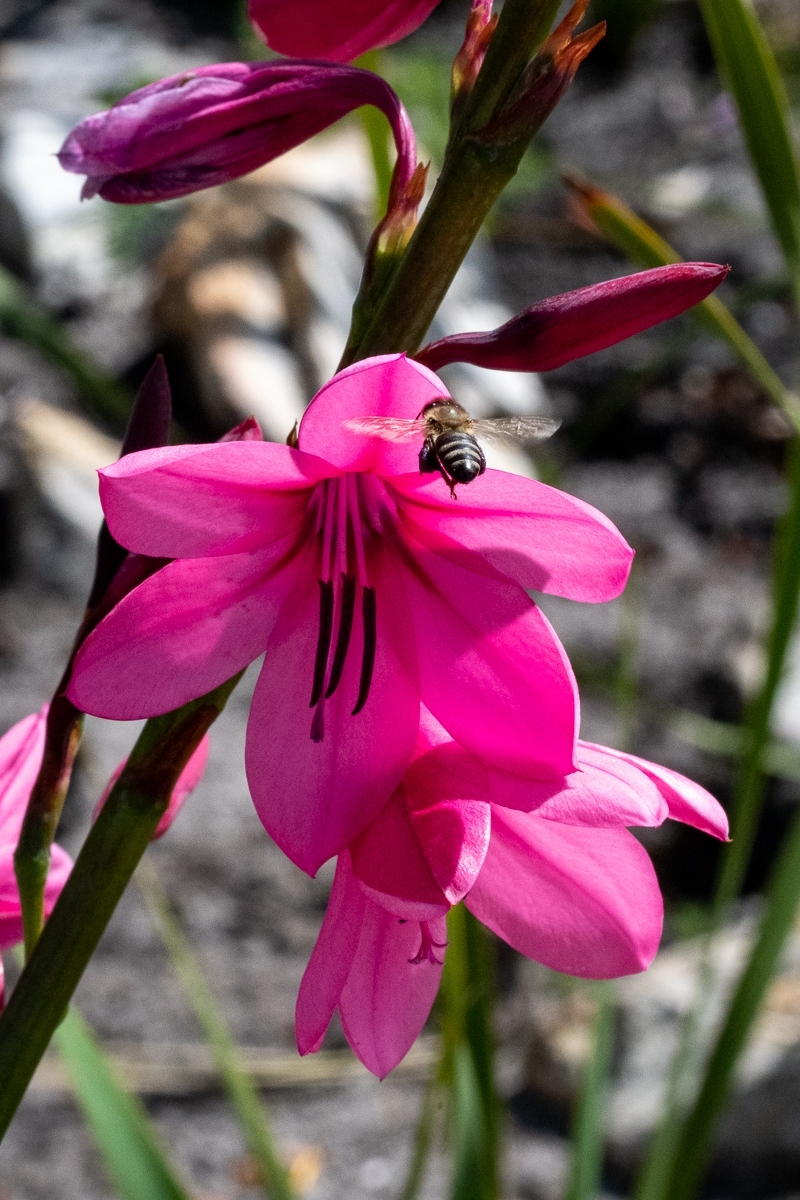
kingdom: Animalia
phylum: Arthropoda
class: Insecta
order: Hymenoptera
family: Apidae
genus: Apis
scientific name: Apis mellifera
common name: Honey bee
